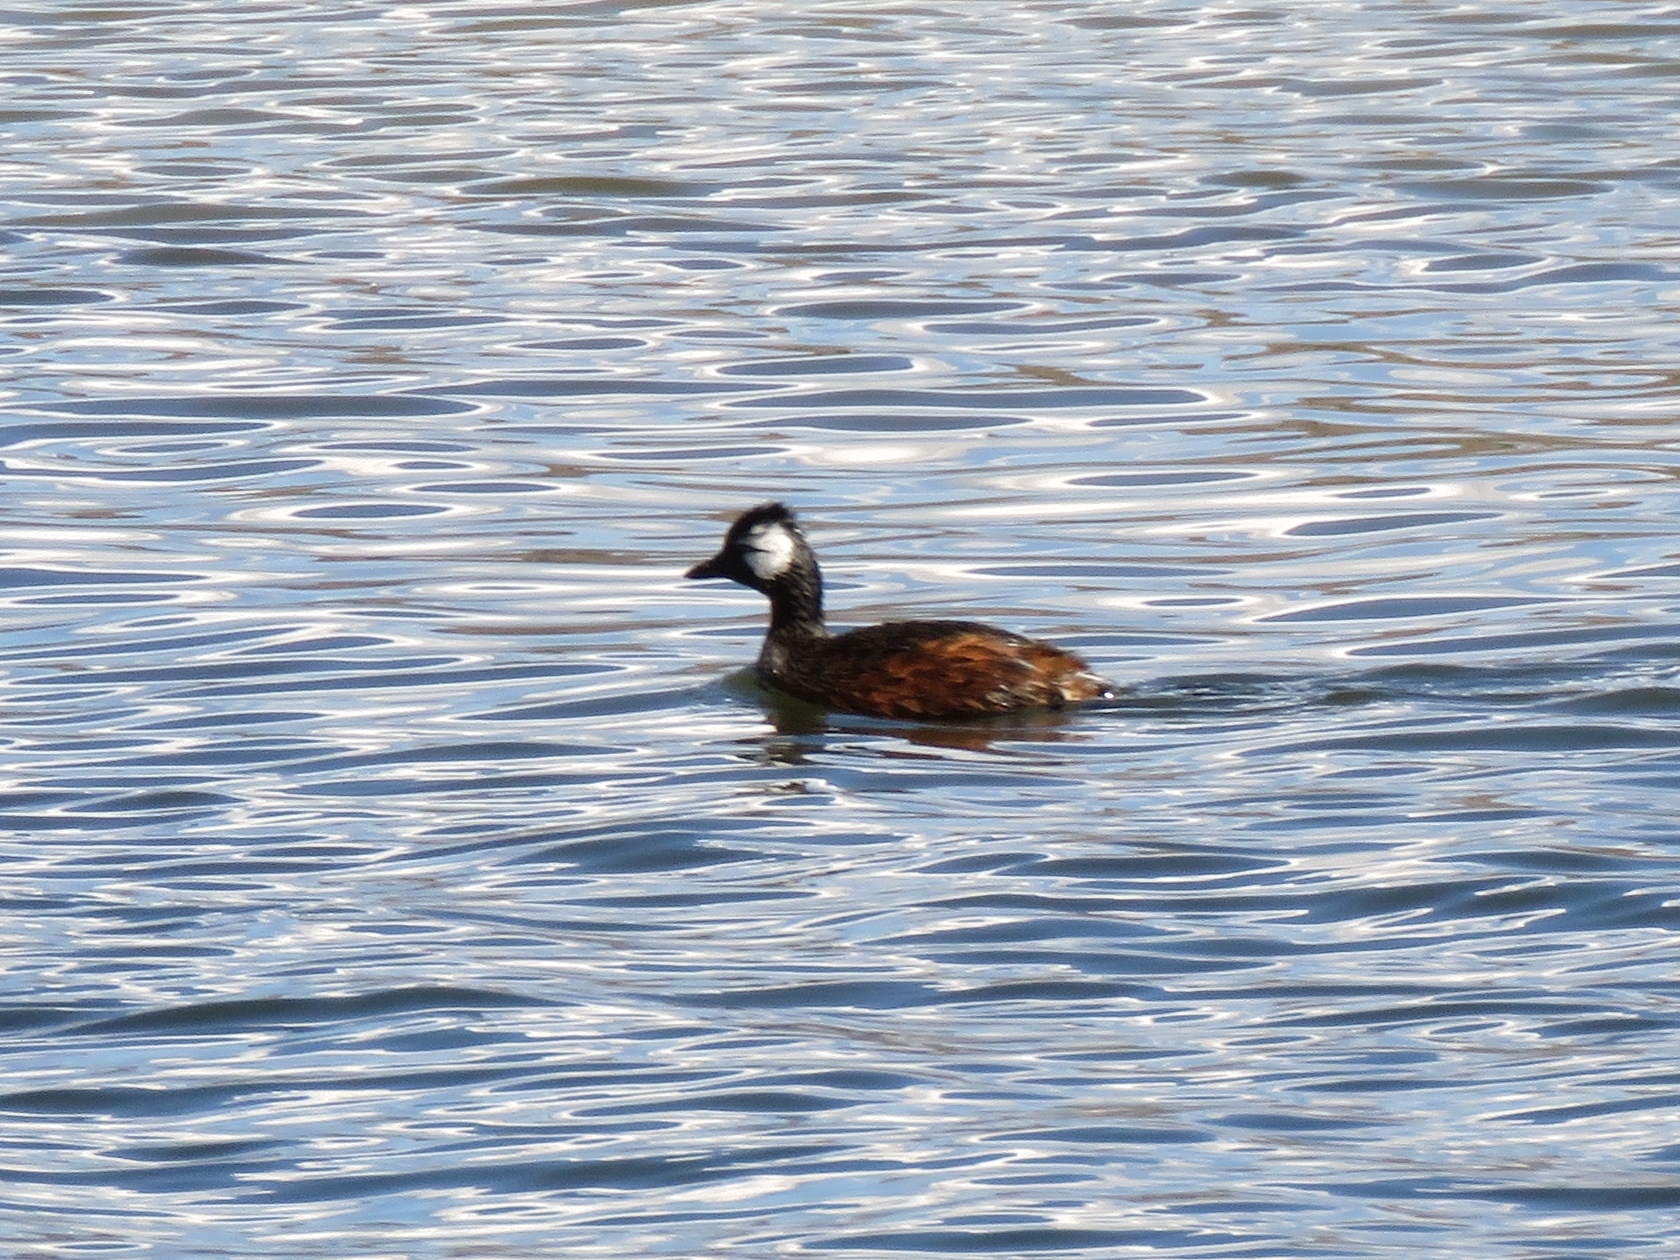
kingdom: Animalia
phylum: Chordata
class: Aves
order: Podicipediformes
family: Podicipedidae
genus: Rollandia
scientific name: Rollandia rolland
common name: White-tufted grebe
